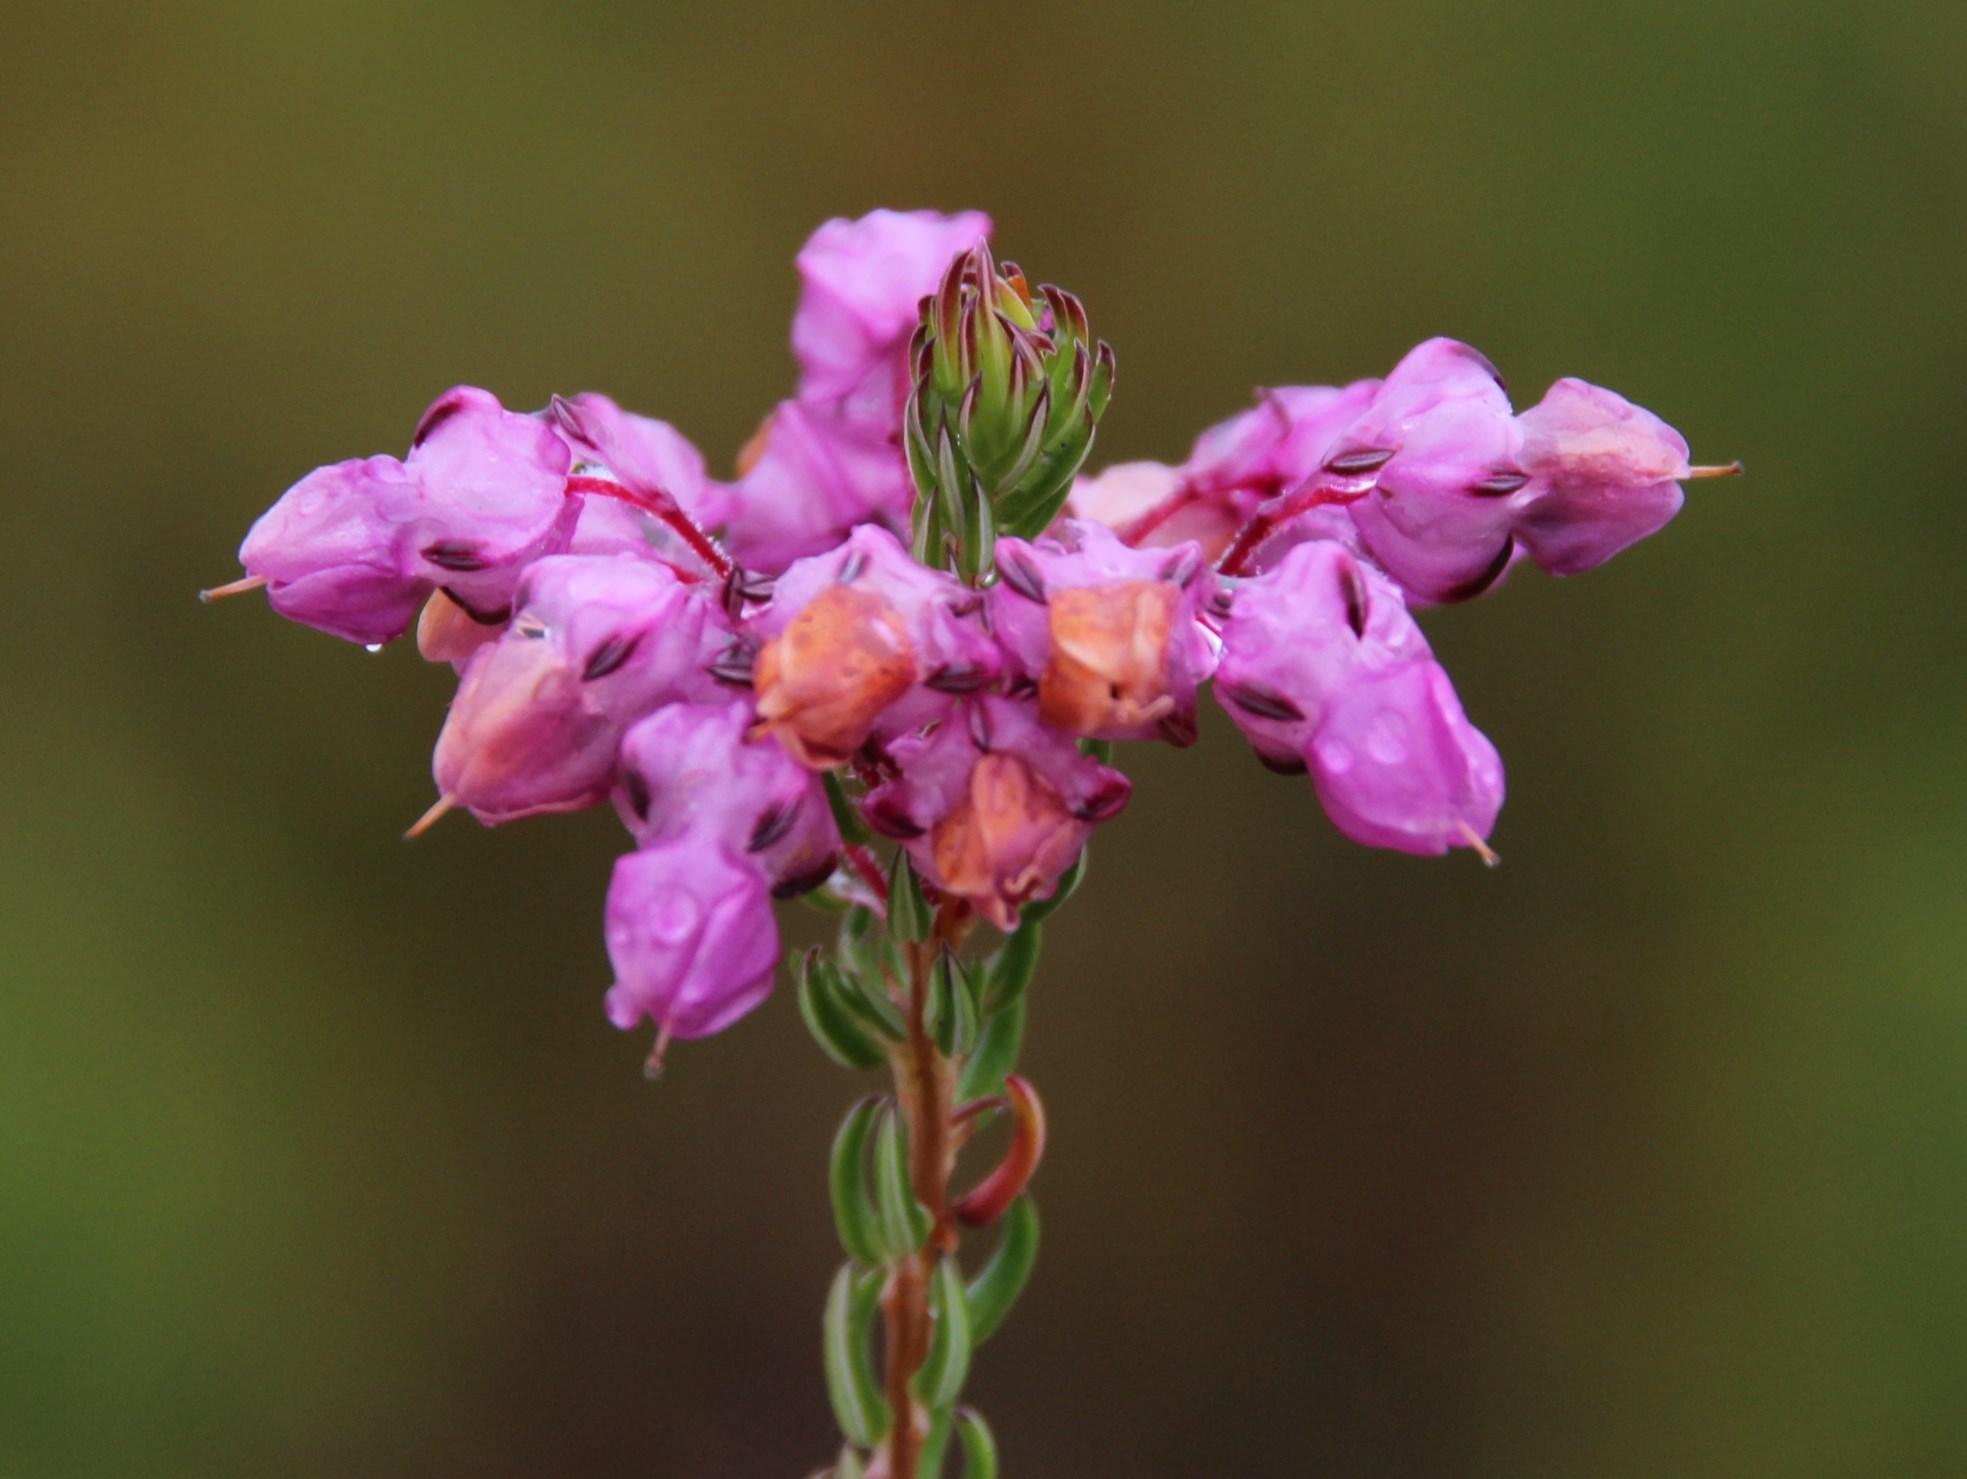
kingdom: Plantae
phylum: Tracheophyta
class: Magnoliopsida
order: Ericales
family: Ericaceae
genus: Erica
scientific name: Erica cubica
